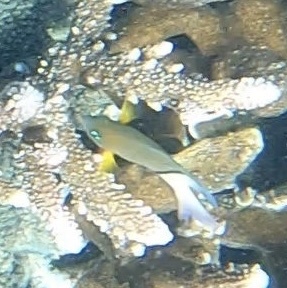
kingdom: Animalia
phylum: Chordata
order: Perciformes
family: Pomacentridae
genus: Plectroglyphidodon
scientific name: Plectroglyphidodon dickii
